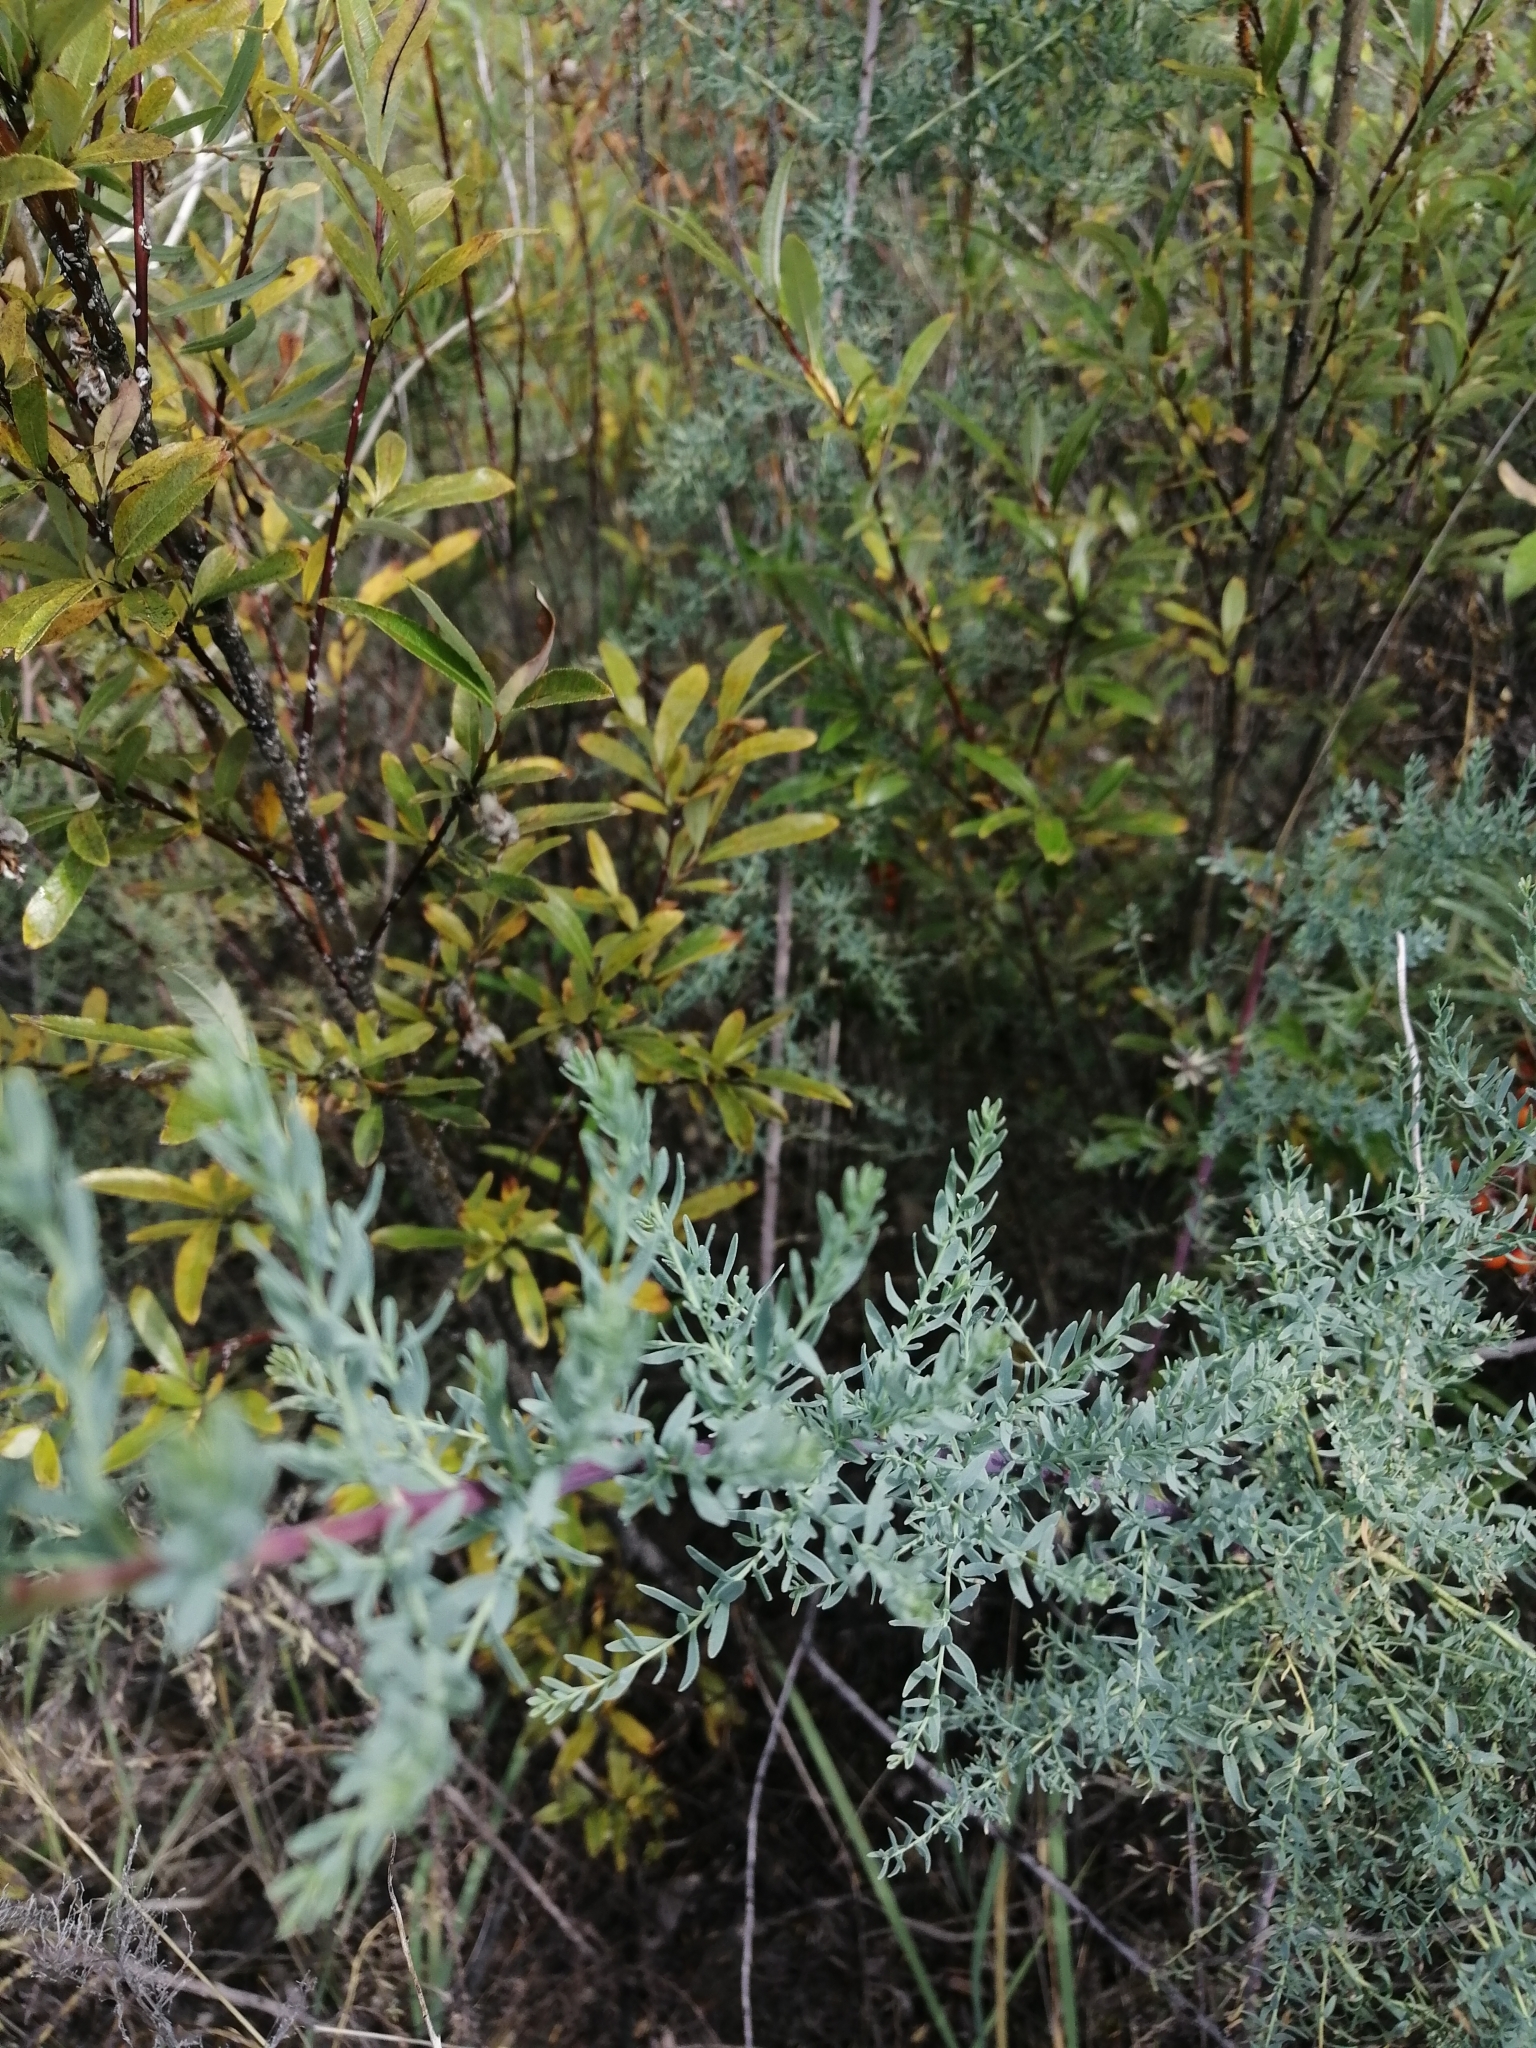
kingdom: Plantae
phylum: Tracheophyta
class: Magnoliopsida
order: Caryophyllales
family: Tamaricaceae
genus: Myricaria
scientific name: Myricaria longifolia
